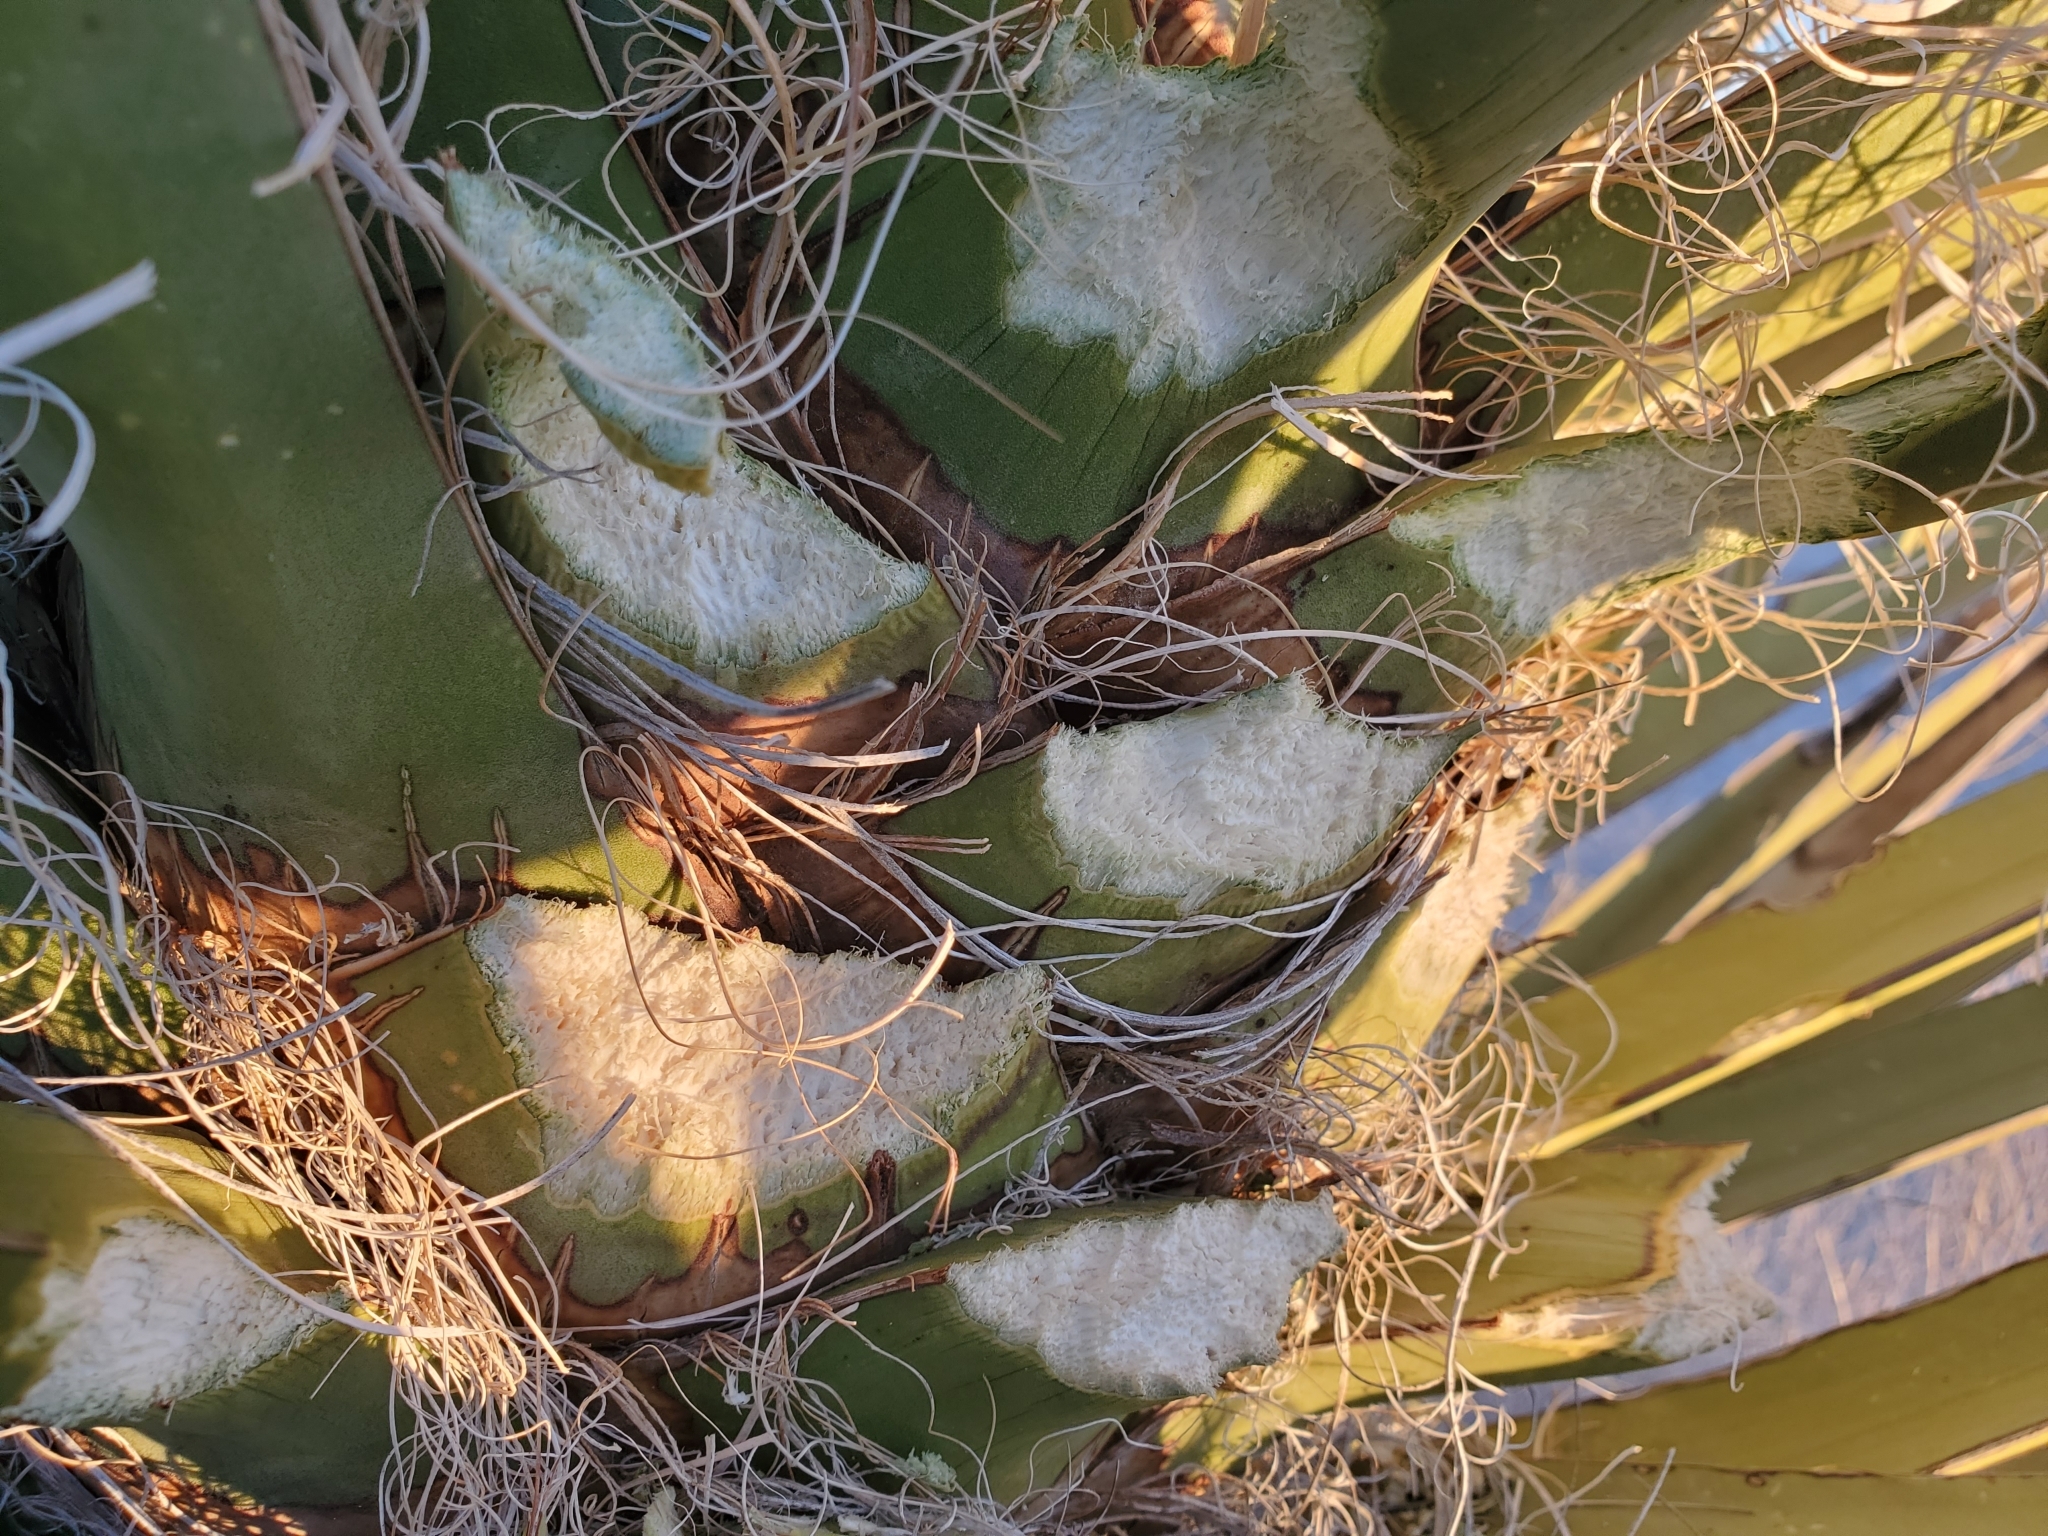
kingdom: Plantae
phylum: Tracheophyta
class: Liliopsida
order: Asparagales
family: Asparagaceae
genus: Yucca
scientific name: Yucca schidigera
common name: Mojave yucca
